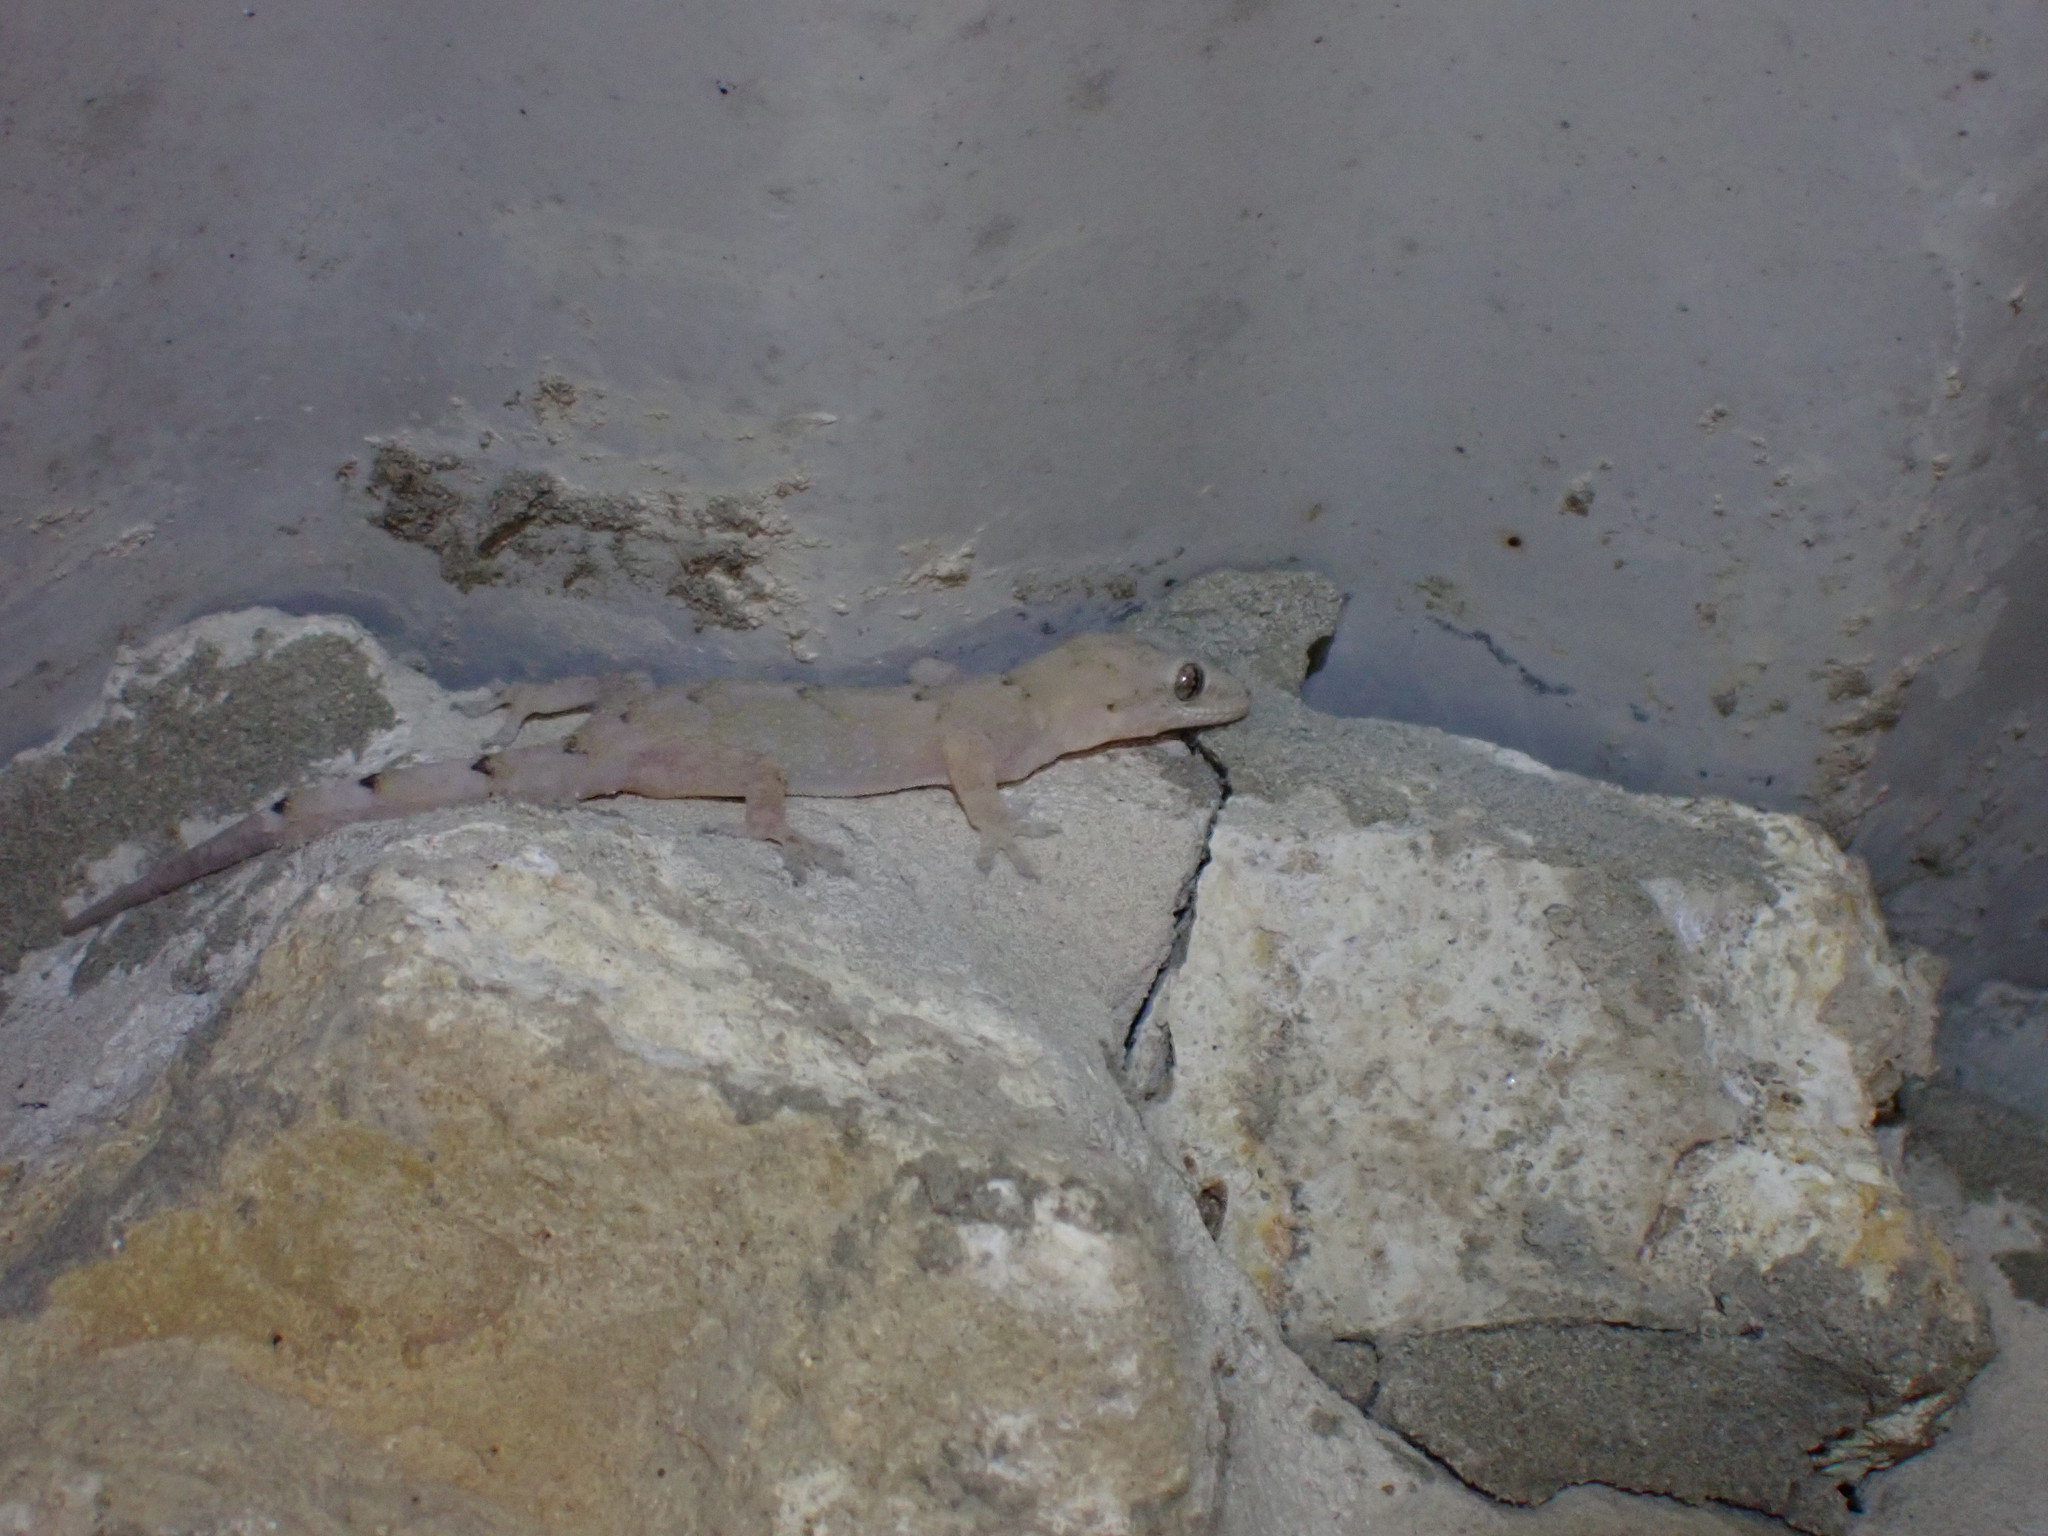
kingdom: Animalia
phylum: Chordata
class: Squamata
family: Gekkonidae
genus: Hemidactylus
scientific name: Hemidactylus mabouia
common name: House gecko
